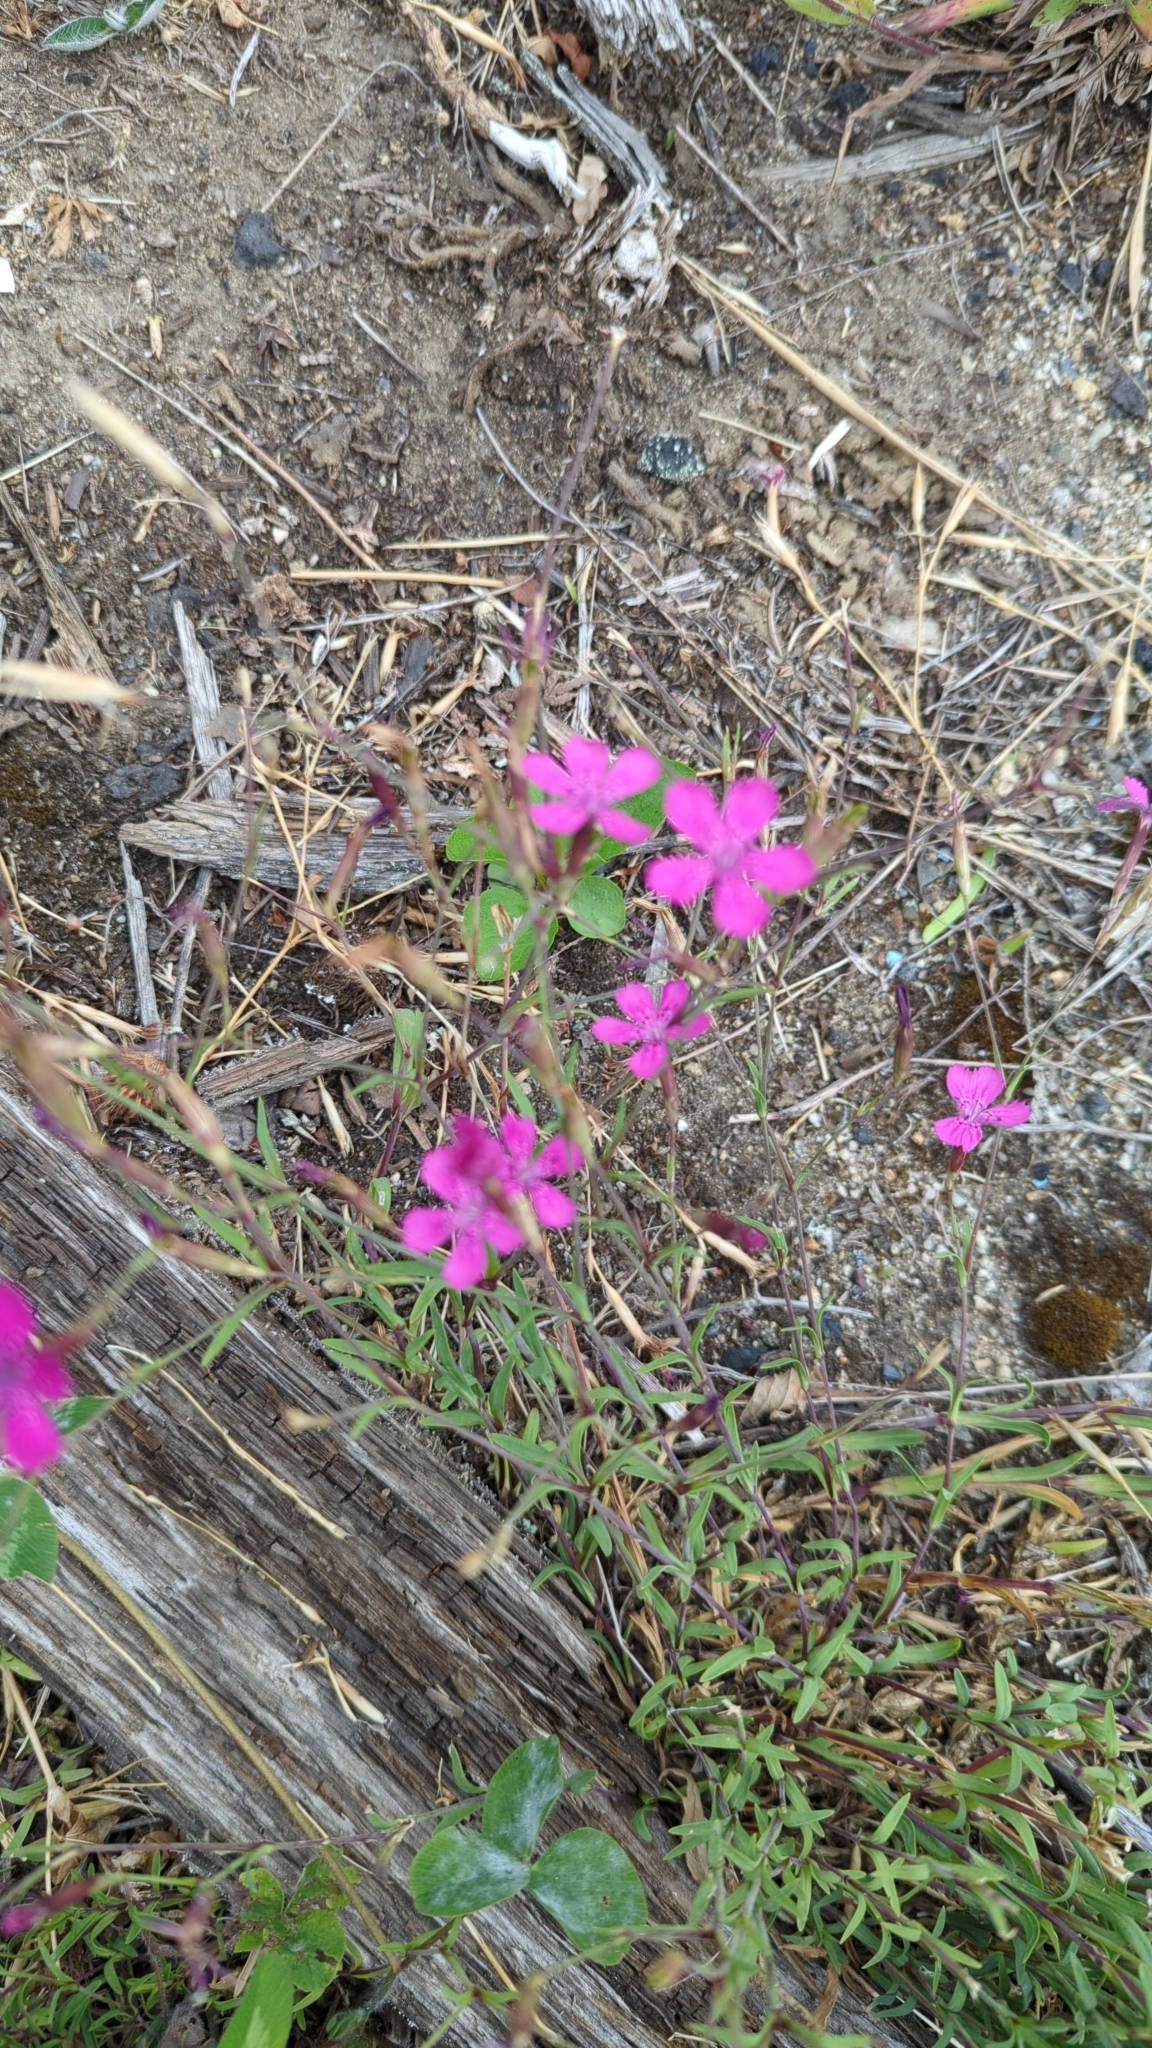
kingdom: Plantae
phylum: Tracheophyta
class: Magnoliopsida
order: Caryophyllales
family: Caryophyllaceae
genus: Dianthus
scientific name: Dianthus deltoides
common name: Maiden pink
